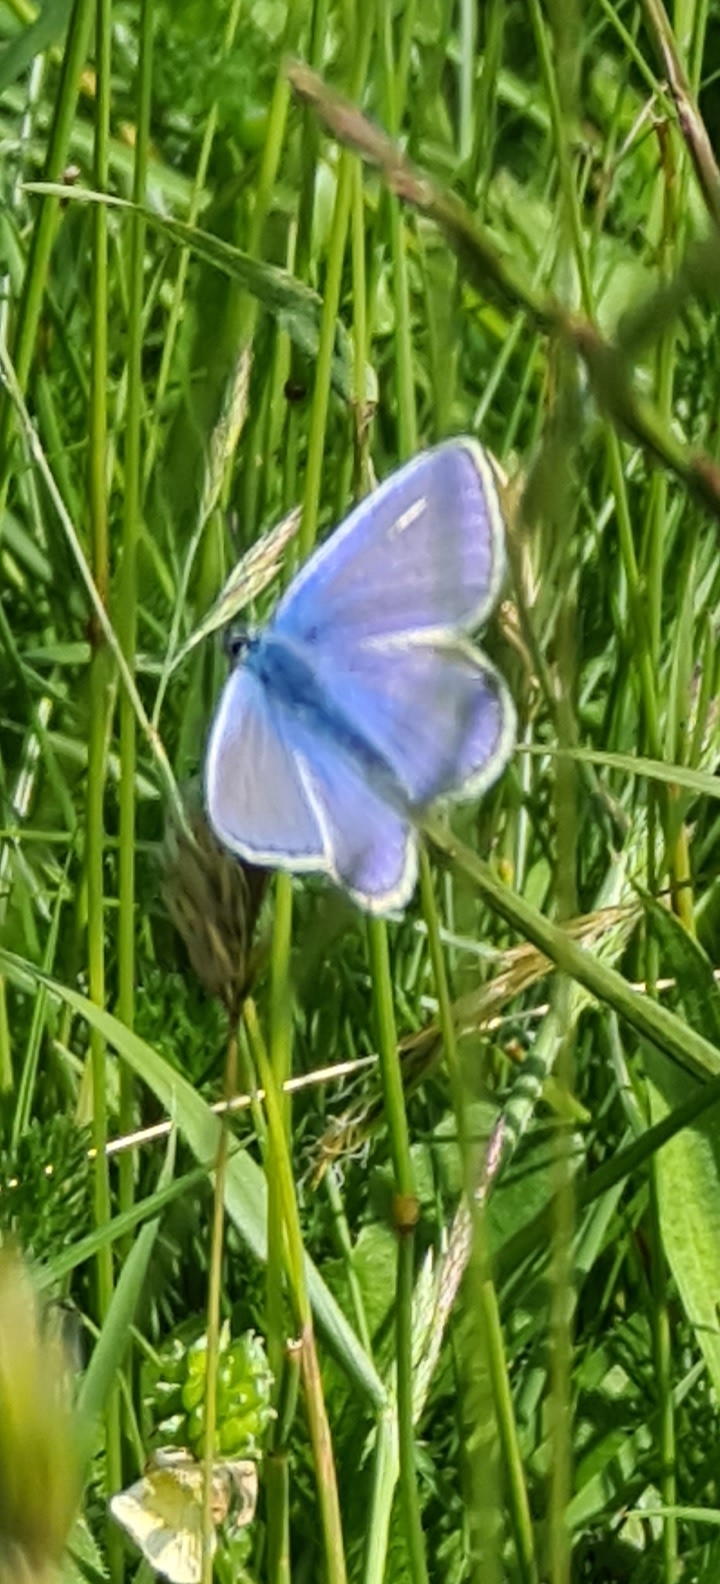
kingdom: Animalia
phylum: Arthropoda
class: Insecta
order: Lepidoptera
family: Lycaenidae
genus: Polyommatus
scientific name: Polyommatus icarus
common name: Common blue
